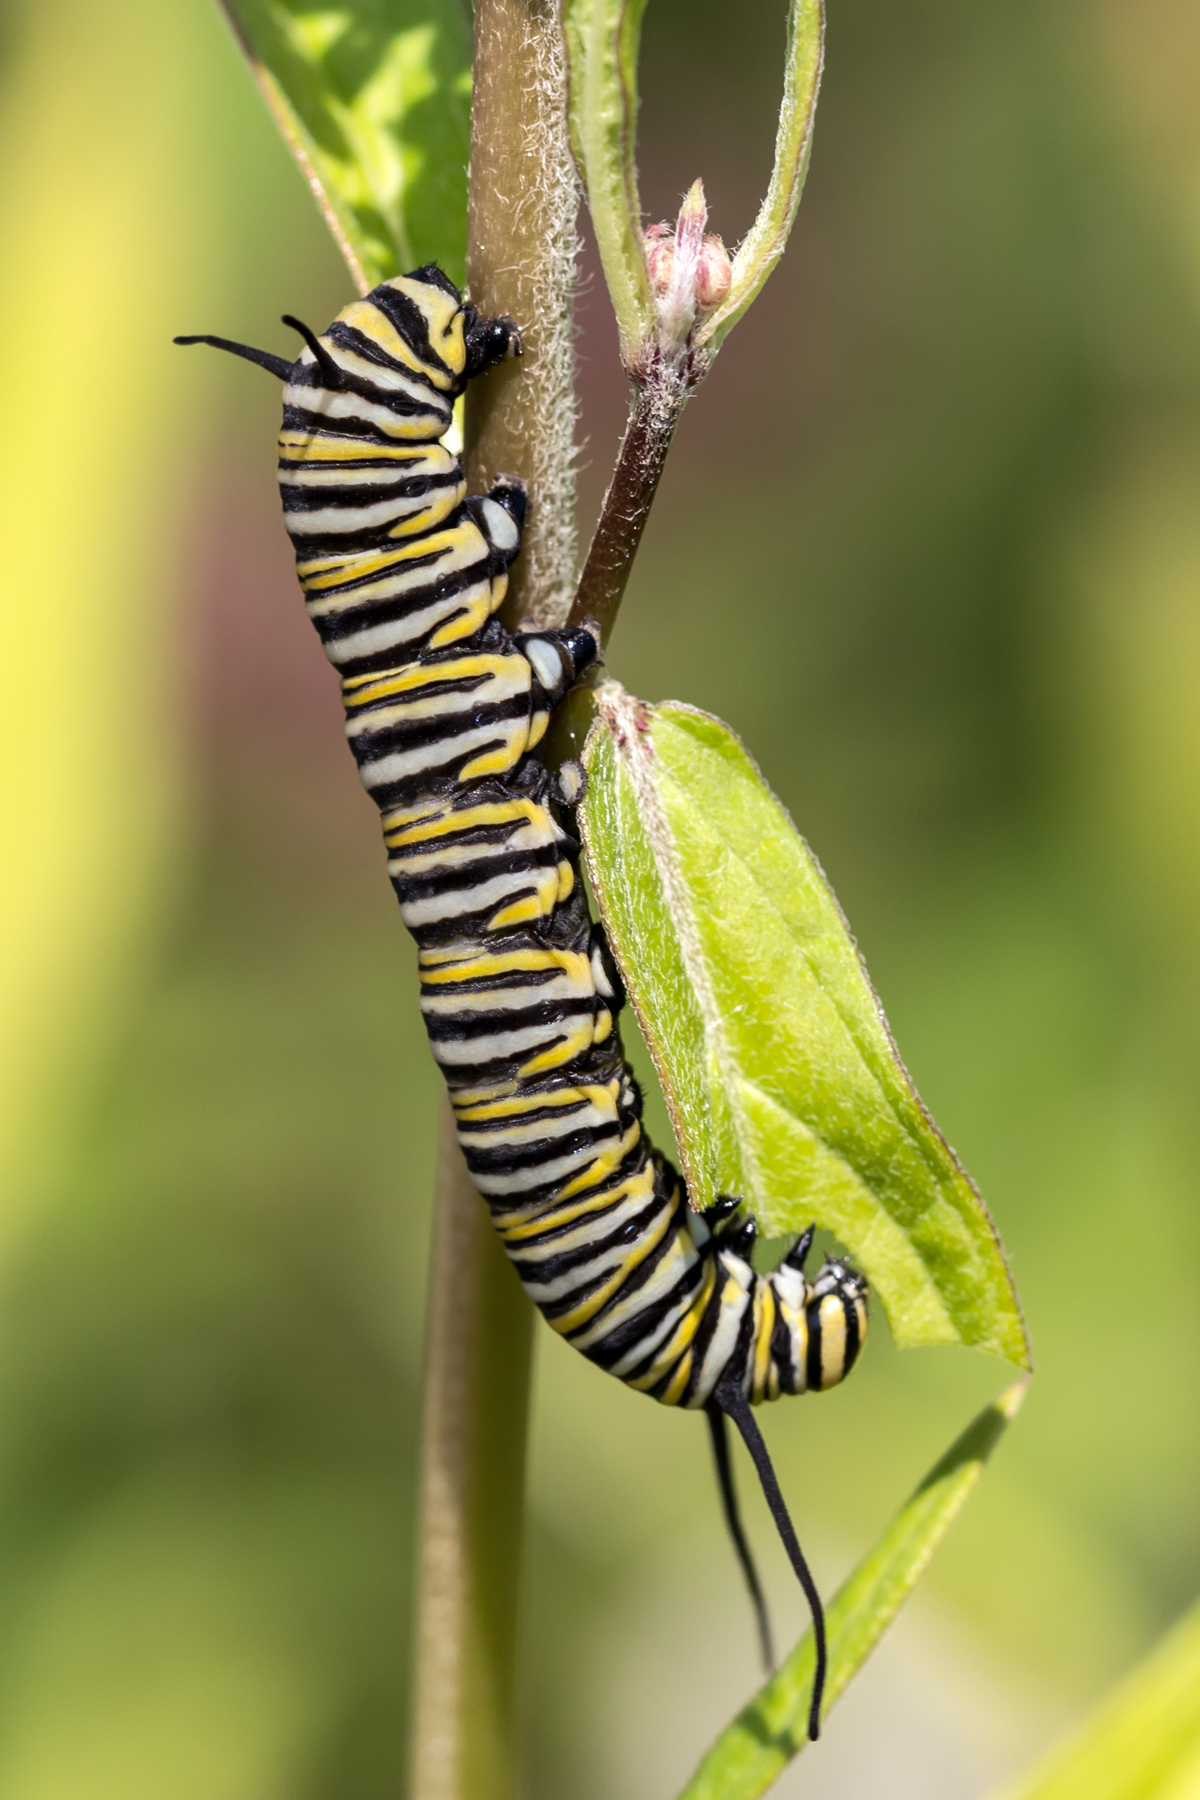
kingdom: Animalia
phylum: Arthropoda
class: Insecta
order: Lepidoptera
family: Nymphalidae
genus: Danaus
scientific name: Danaus plexippus
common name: Monarch
